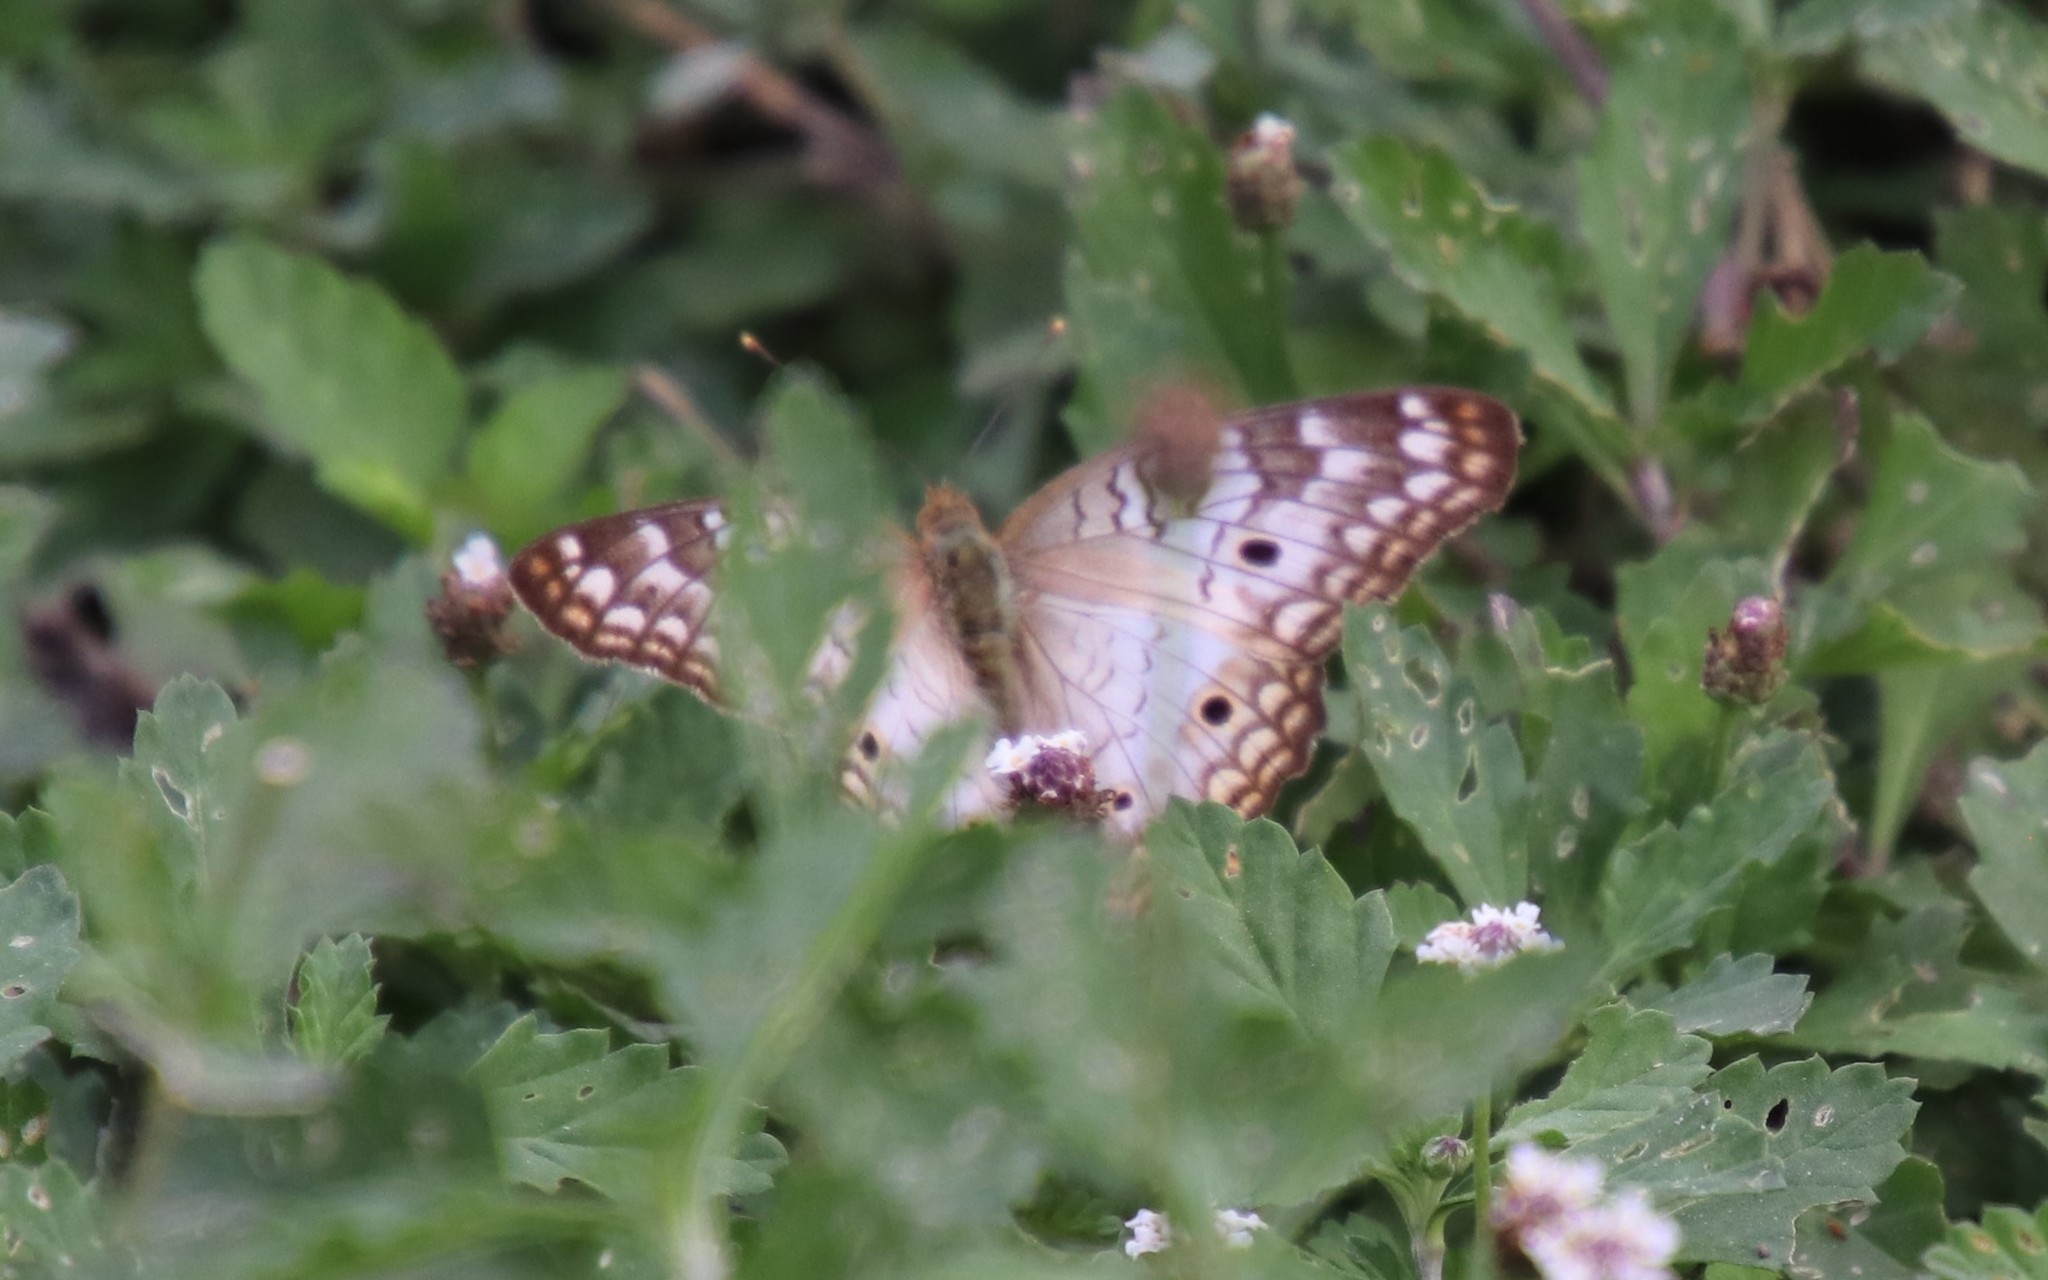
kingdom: Animalia
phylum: Arthropoda
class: Insecta
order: Lepidoptera
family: Nymphalidae
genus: Anartia
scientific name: Anartia jatrophae
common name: White peacock
